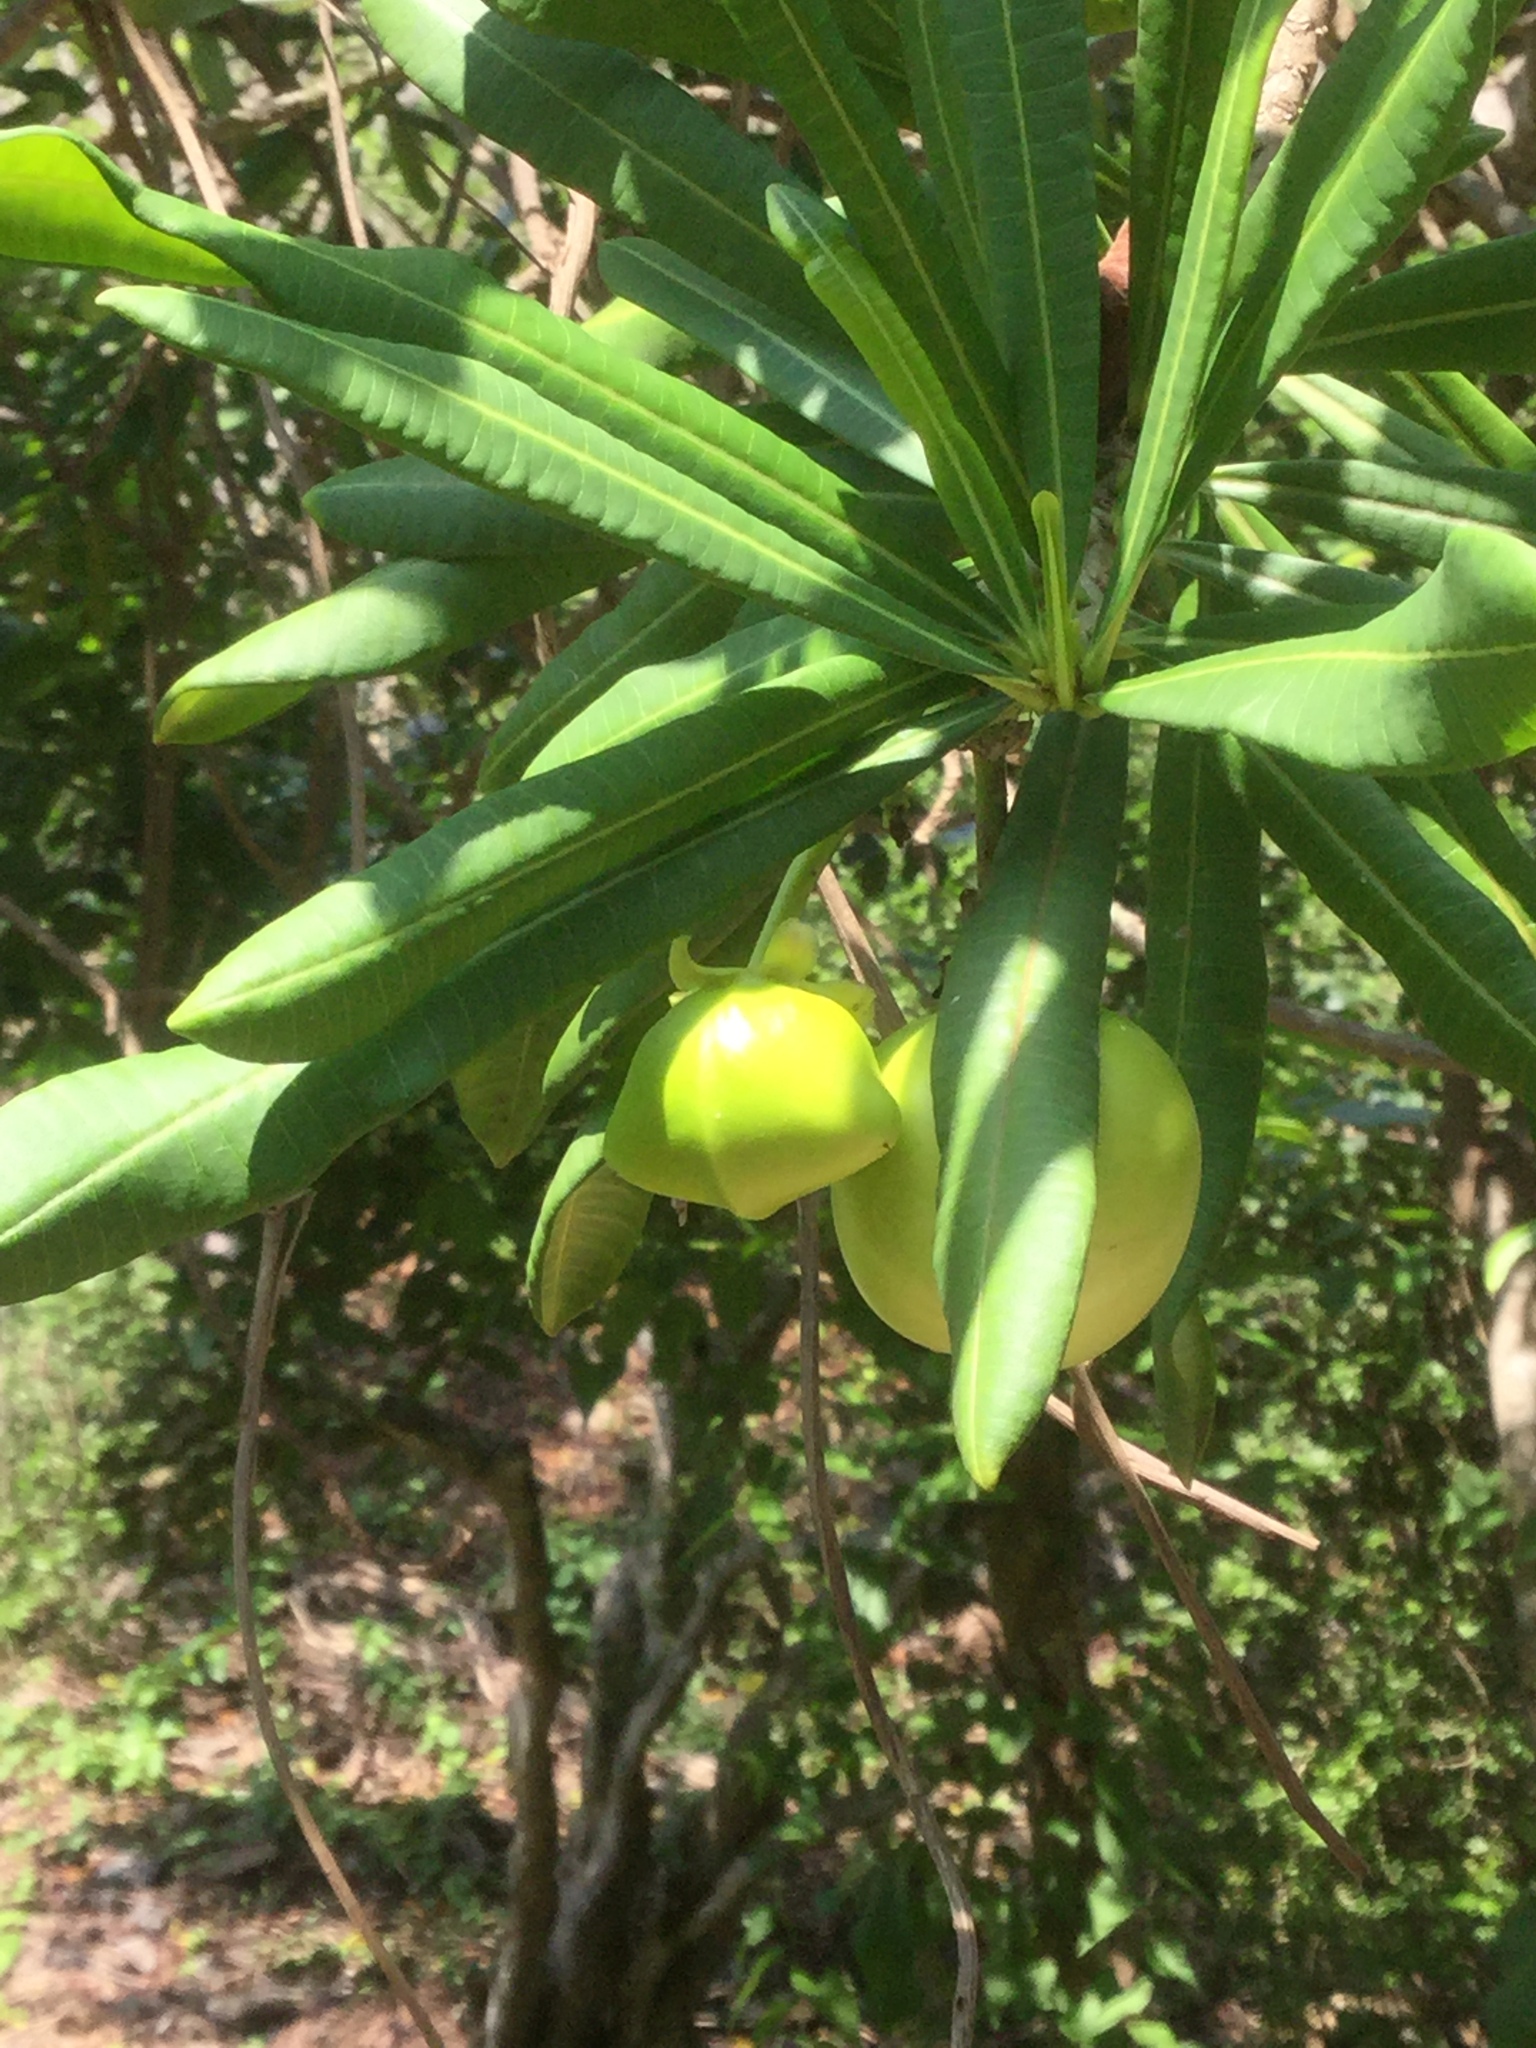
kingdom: Plantae
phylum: Tracheophyta
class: Magnoliopsida
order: Gentianales
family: Apocynaceae
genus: Cascabela
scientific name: Cascabela ovata
